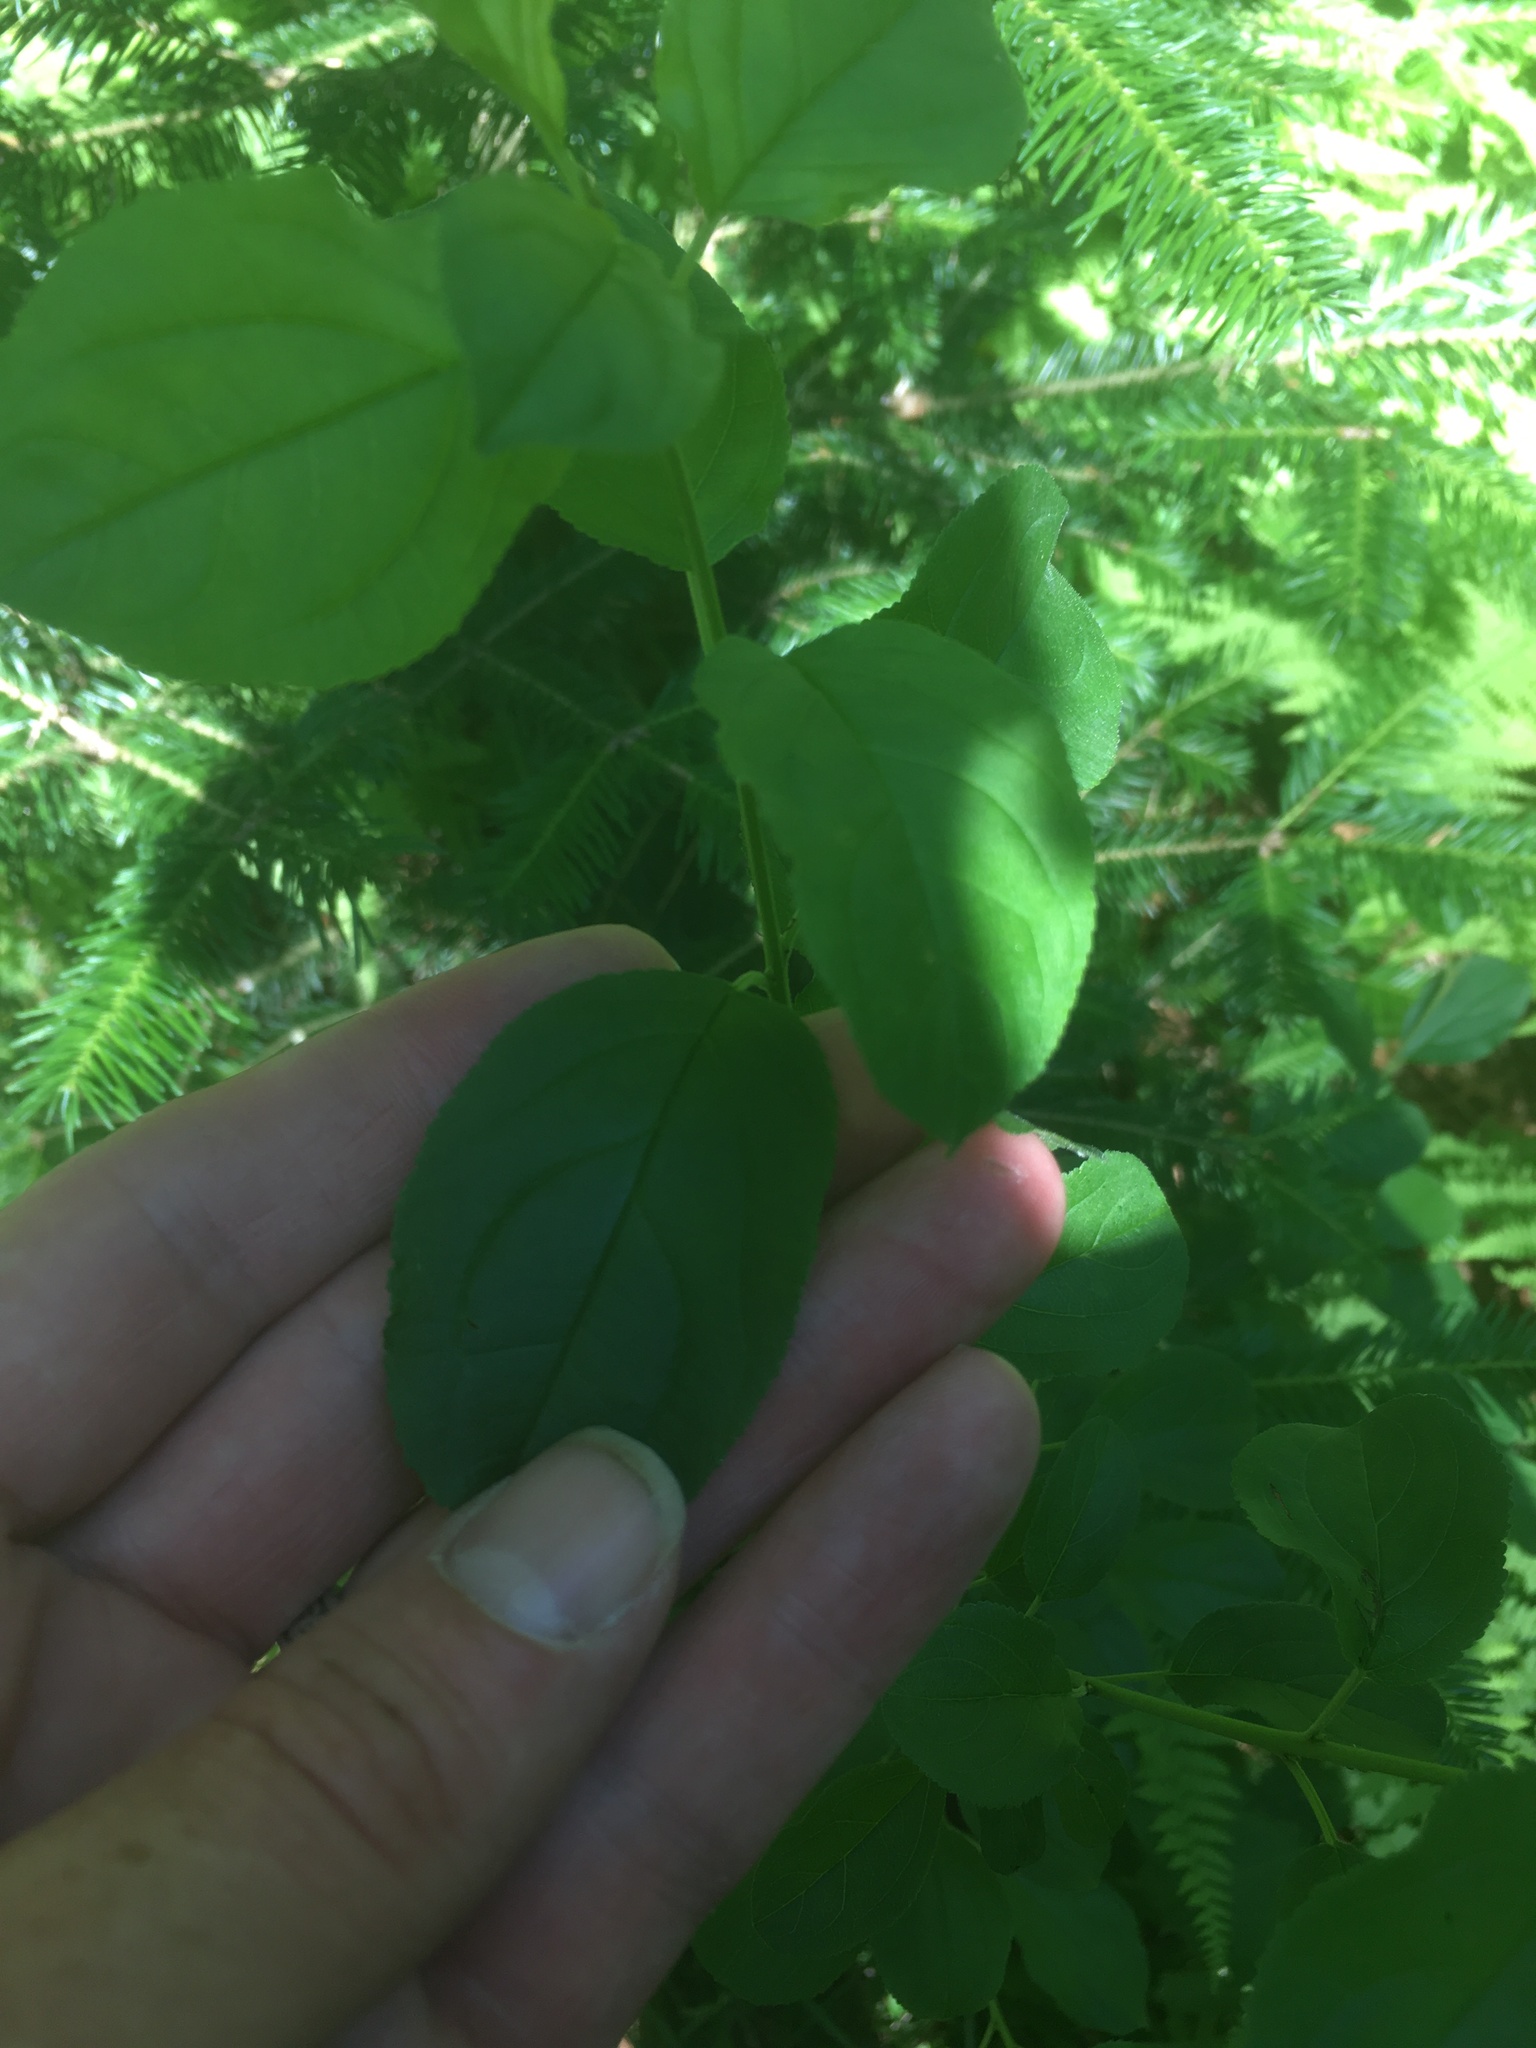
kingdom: Plantae
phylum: Tracheophyta
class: Magnoliopsida
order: Rosales
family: Rhamnaceae
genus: Rhamnus
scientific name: Rhamnus cathartica
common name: Common buckthorn
